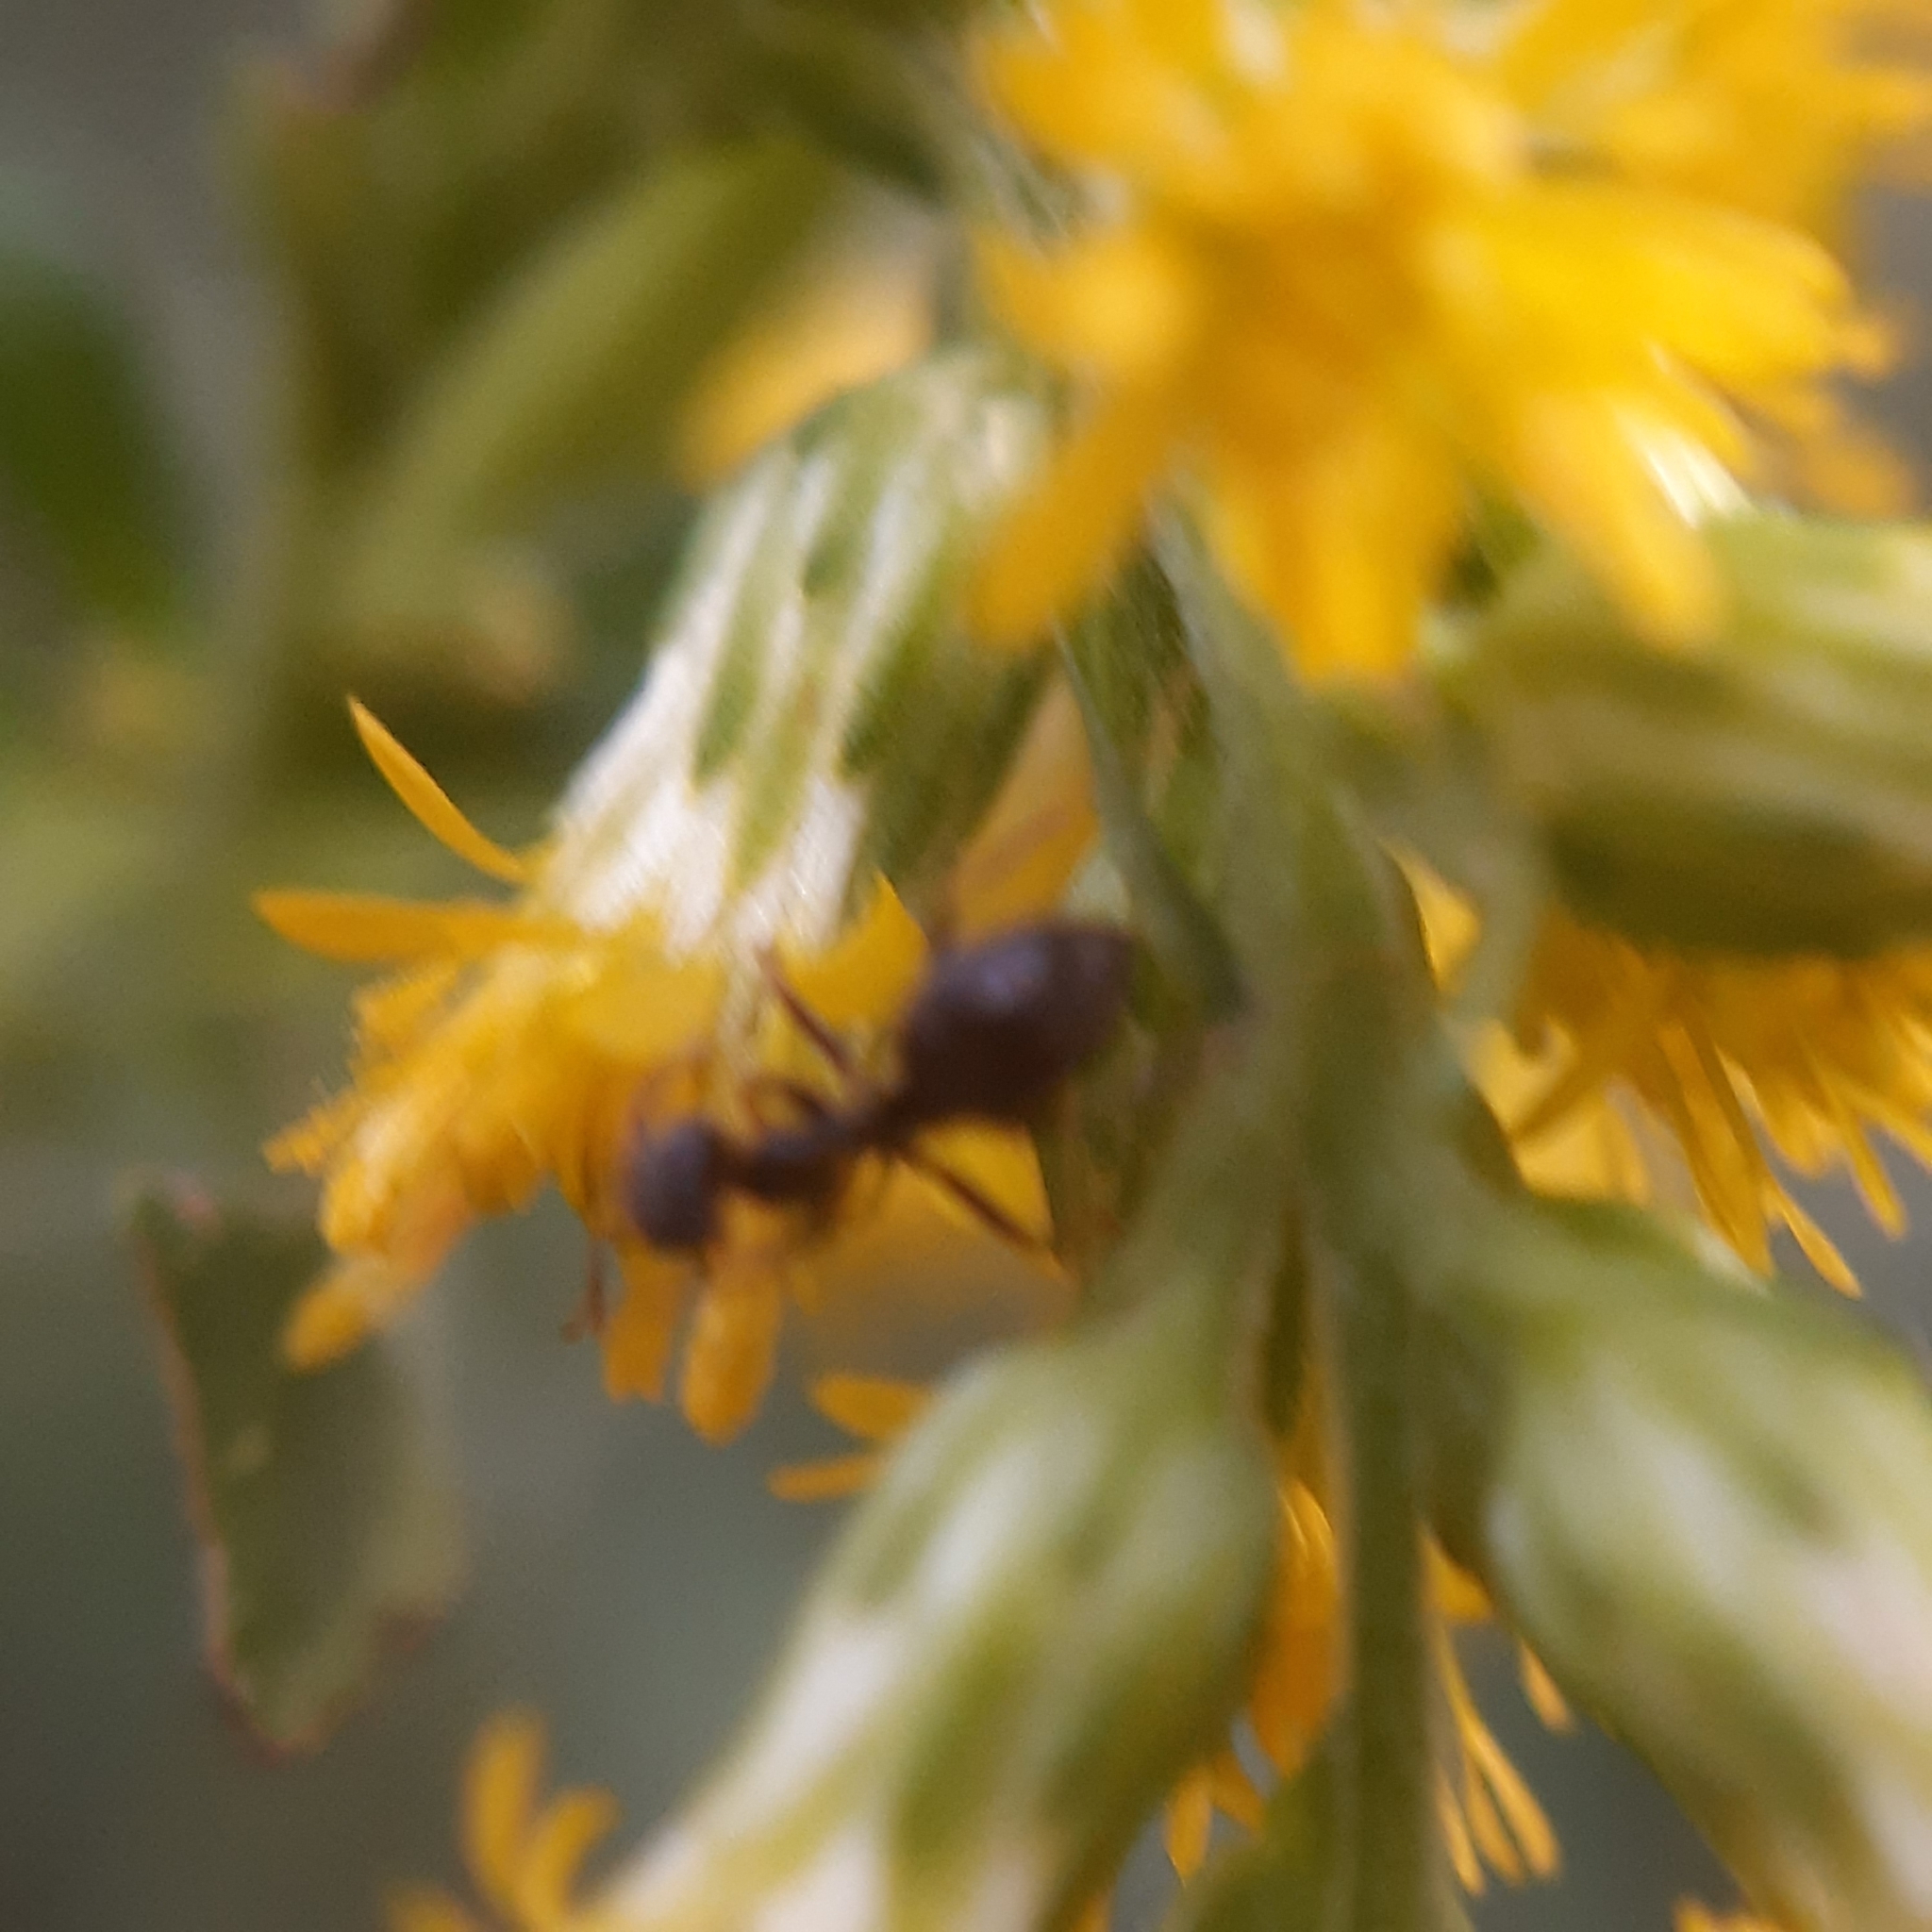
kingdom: Plantae
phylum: Tracheophyta
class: Magnoliopsida
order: Asterales
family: Asteraceae
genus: Solidago
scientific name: Solidago canadensis
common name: Canada goldenrod
